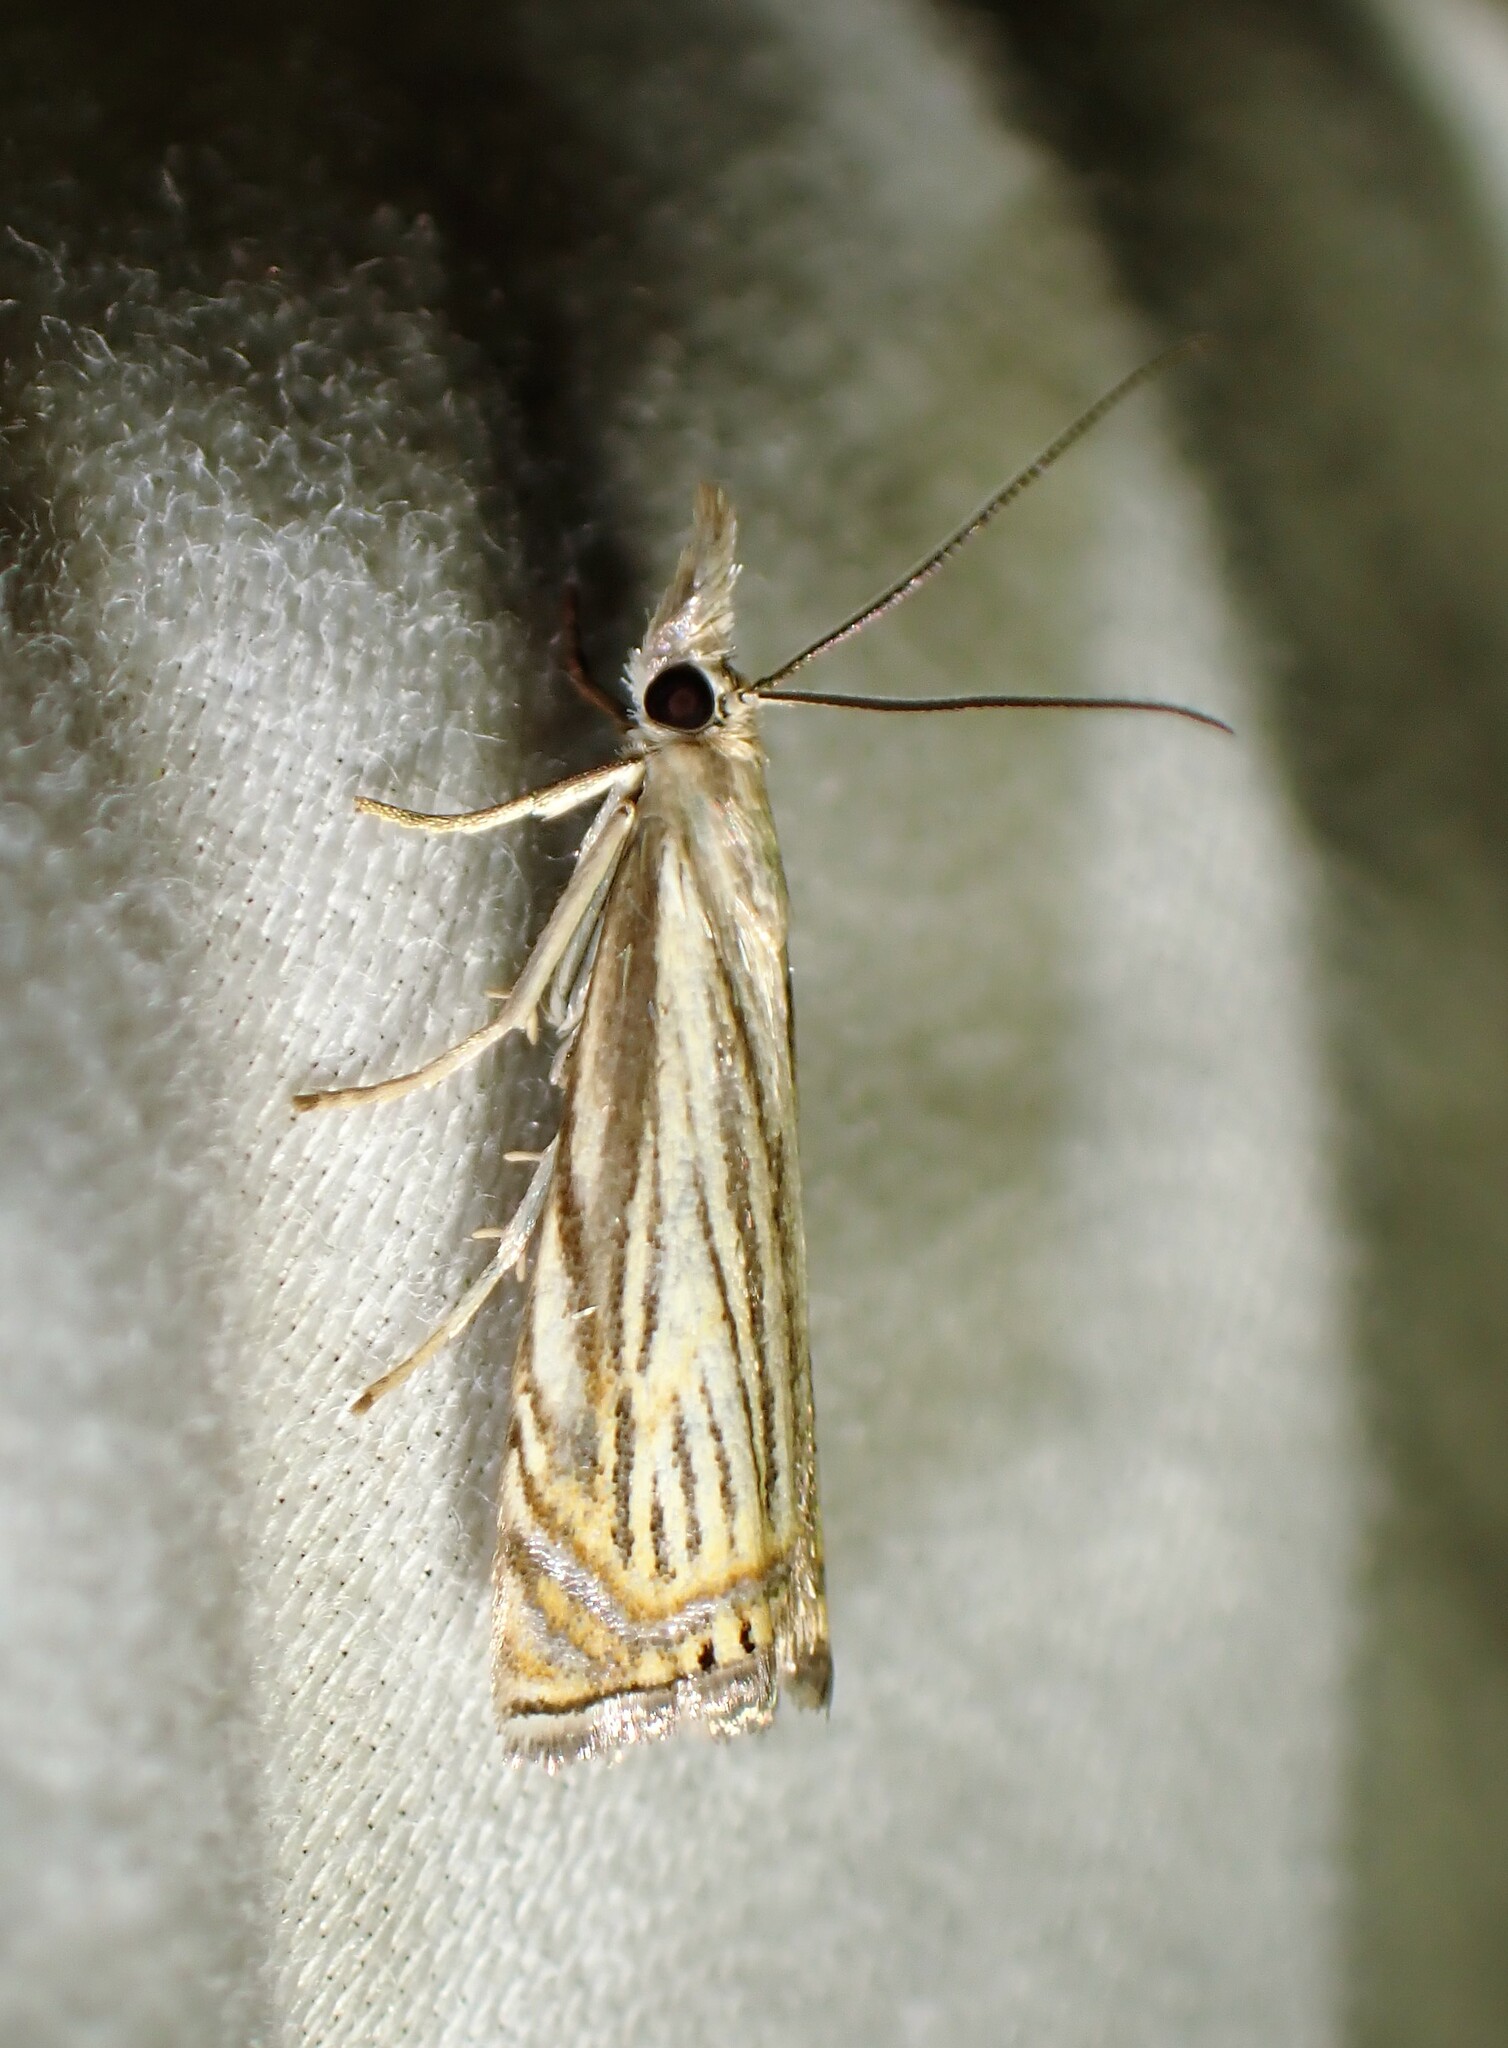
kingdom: Animalia
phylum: Arthropoda
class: Insecta
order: Lepidoptera
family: Crambidae
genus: Chrysoteuchia
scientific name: Chrysoteuchia topiarius
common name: Topiary grass-veneer
